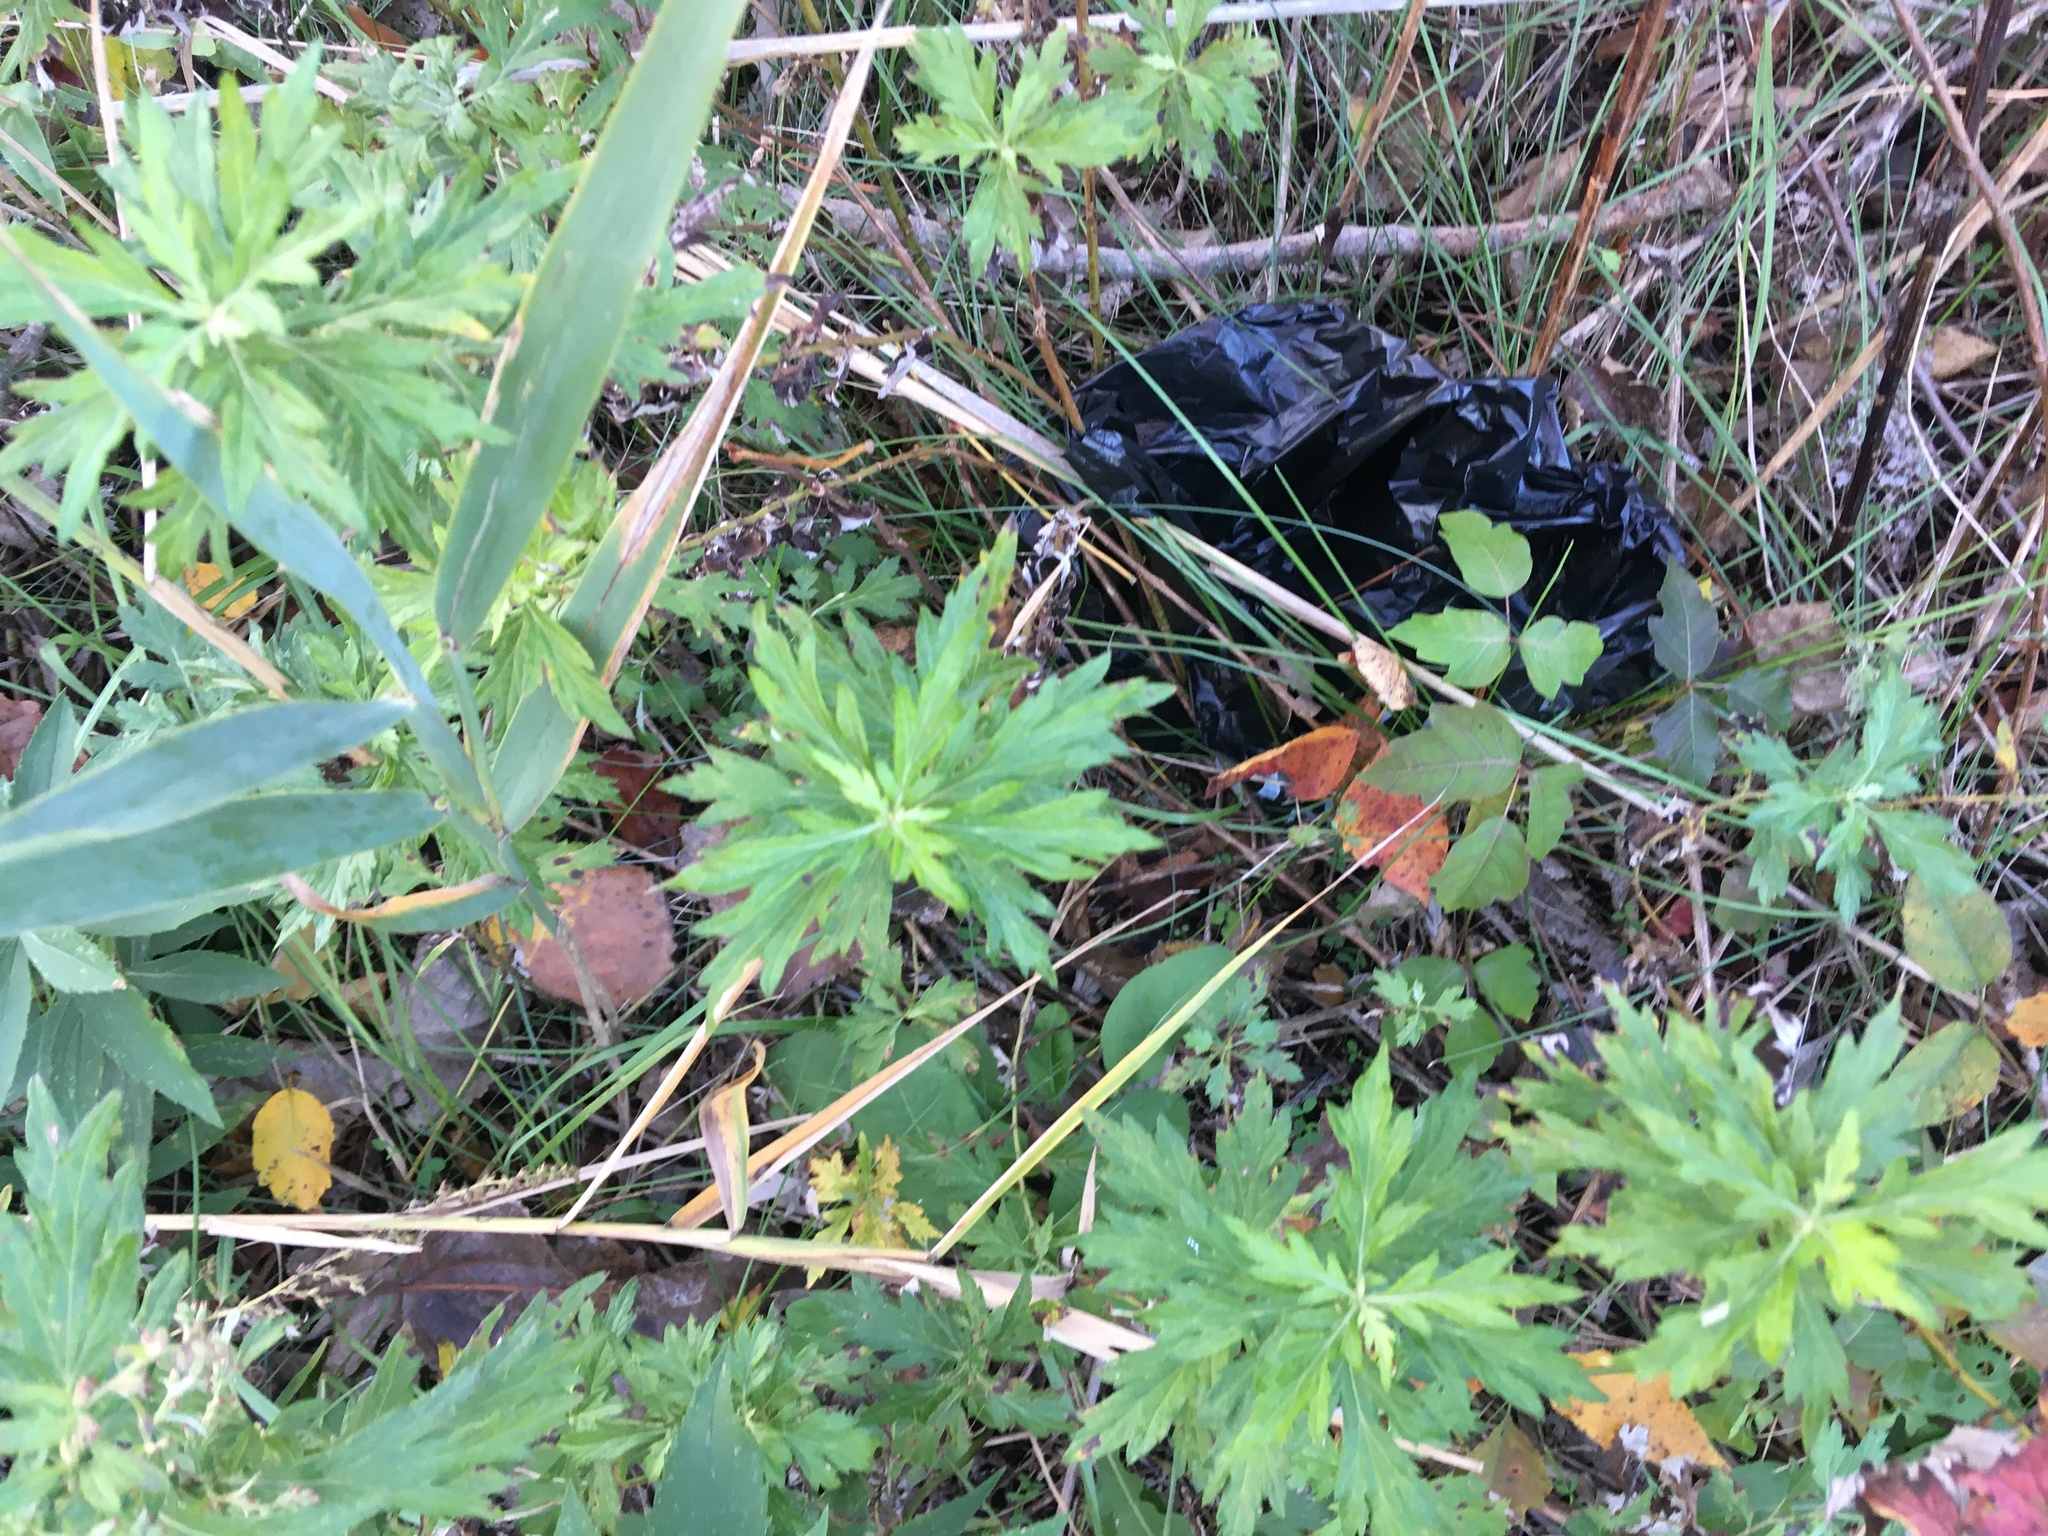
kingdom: Plantae
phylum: Tracheophyta
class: Magnoliopsida
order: Asterales
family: Asteraceae
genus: Artemisia
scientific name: Artemisia vulgaris
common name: Mugwort
